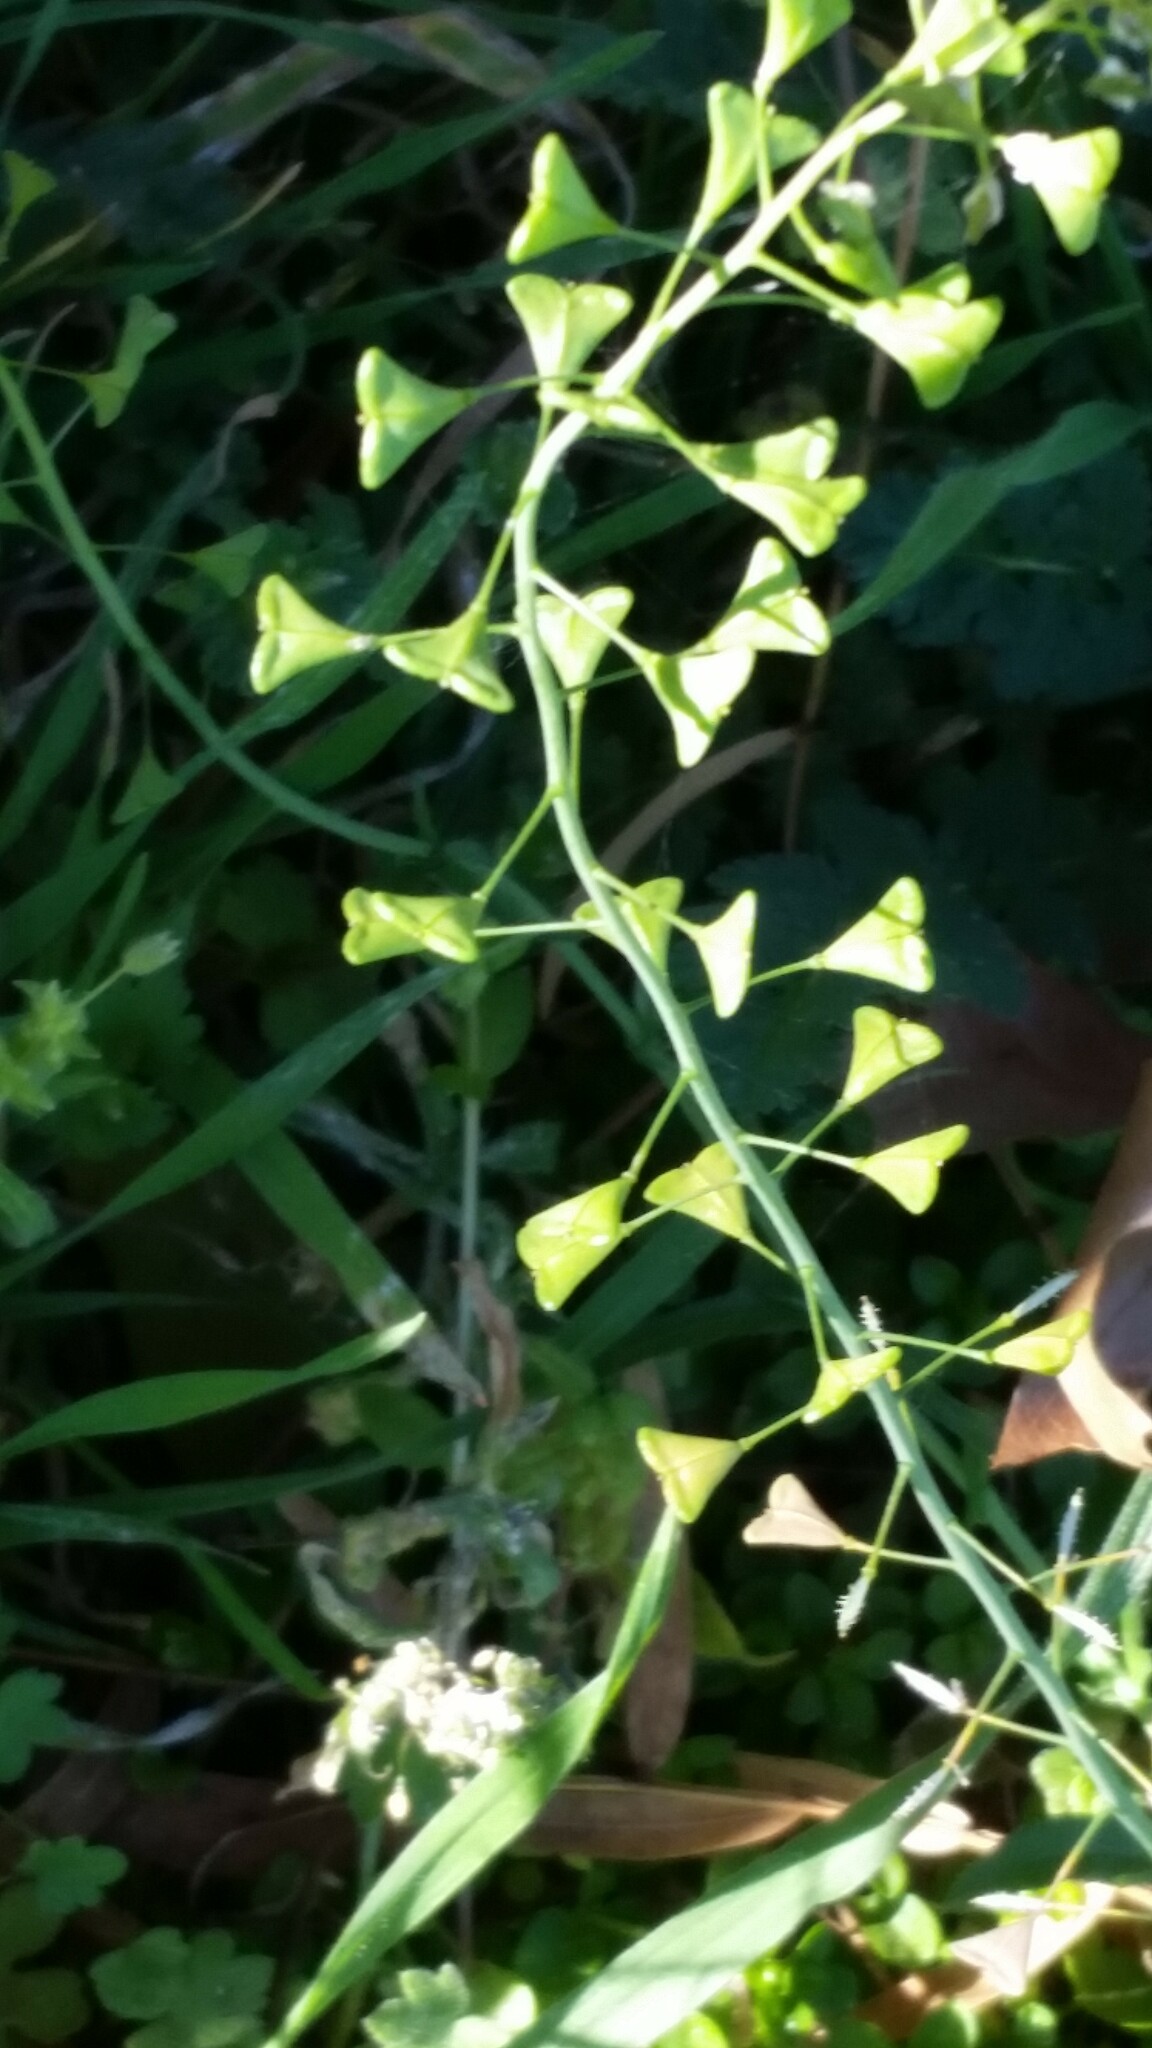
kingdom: Plantae
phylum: Tracheophyta
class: Magnoliopsida
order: Brassicales
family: Brassicaceae
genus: Capsella
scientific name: Capsella bursa-pastoris
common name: Shepherd's purse
